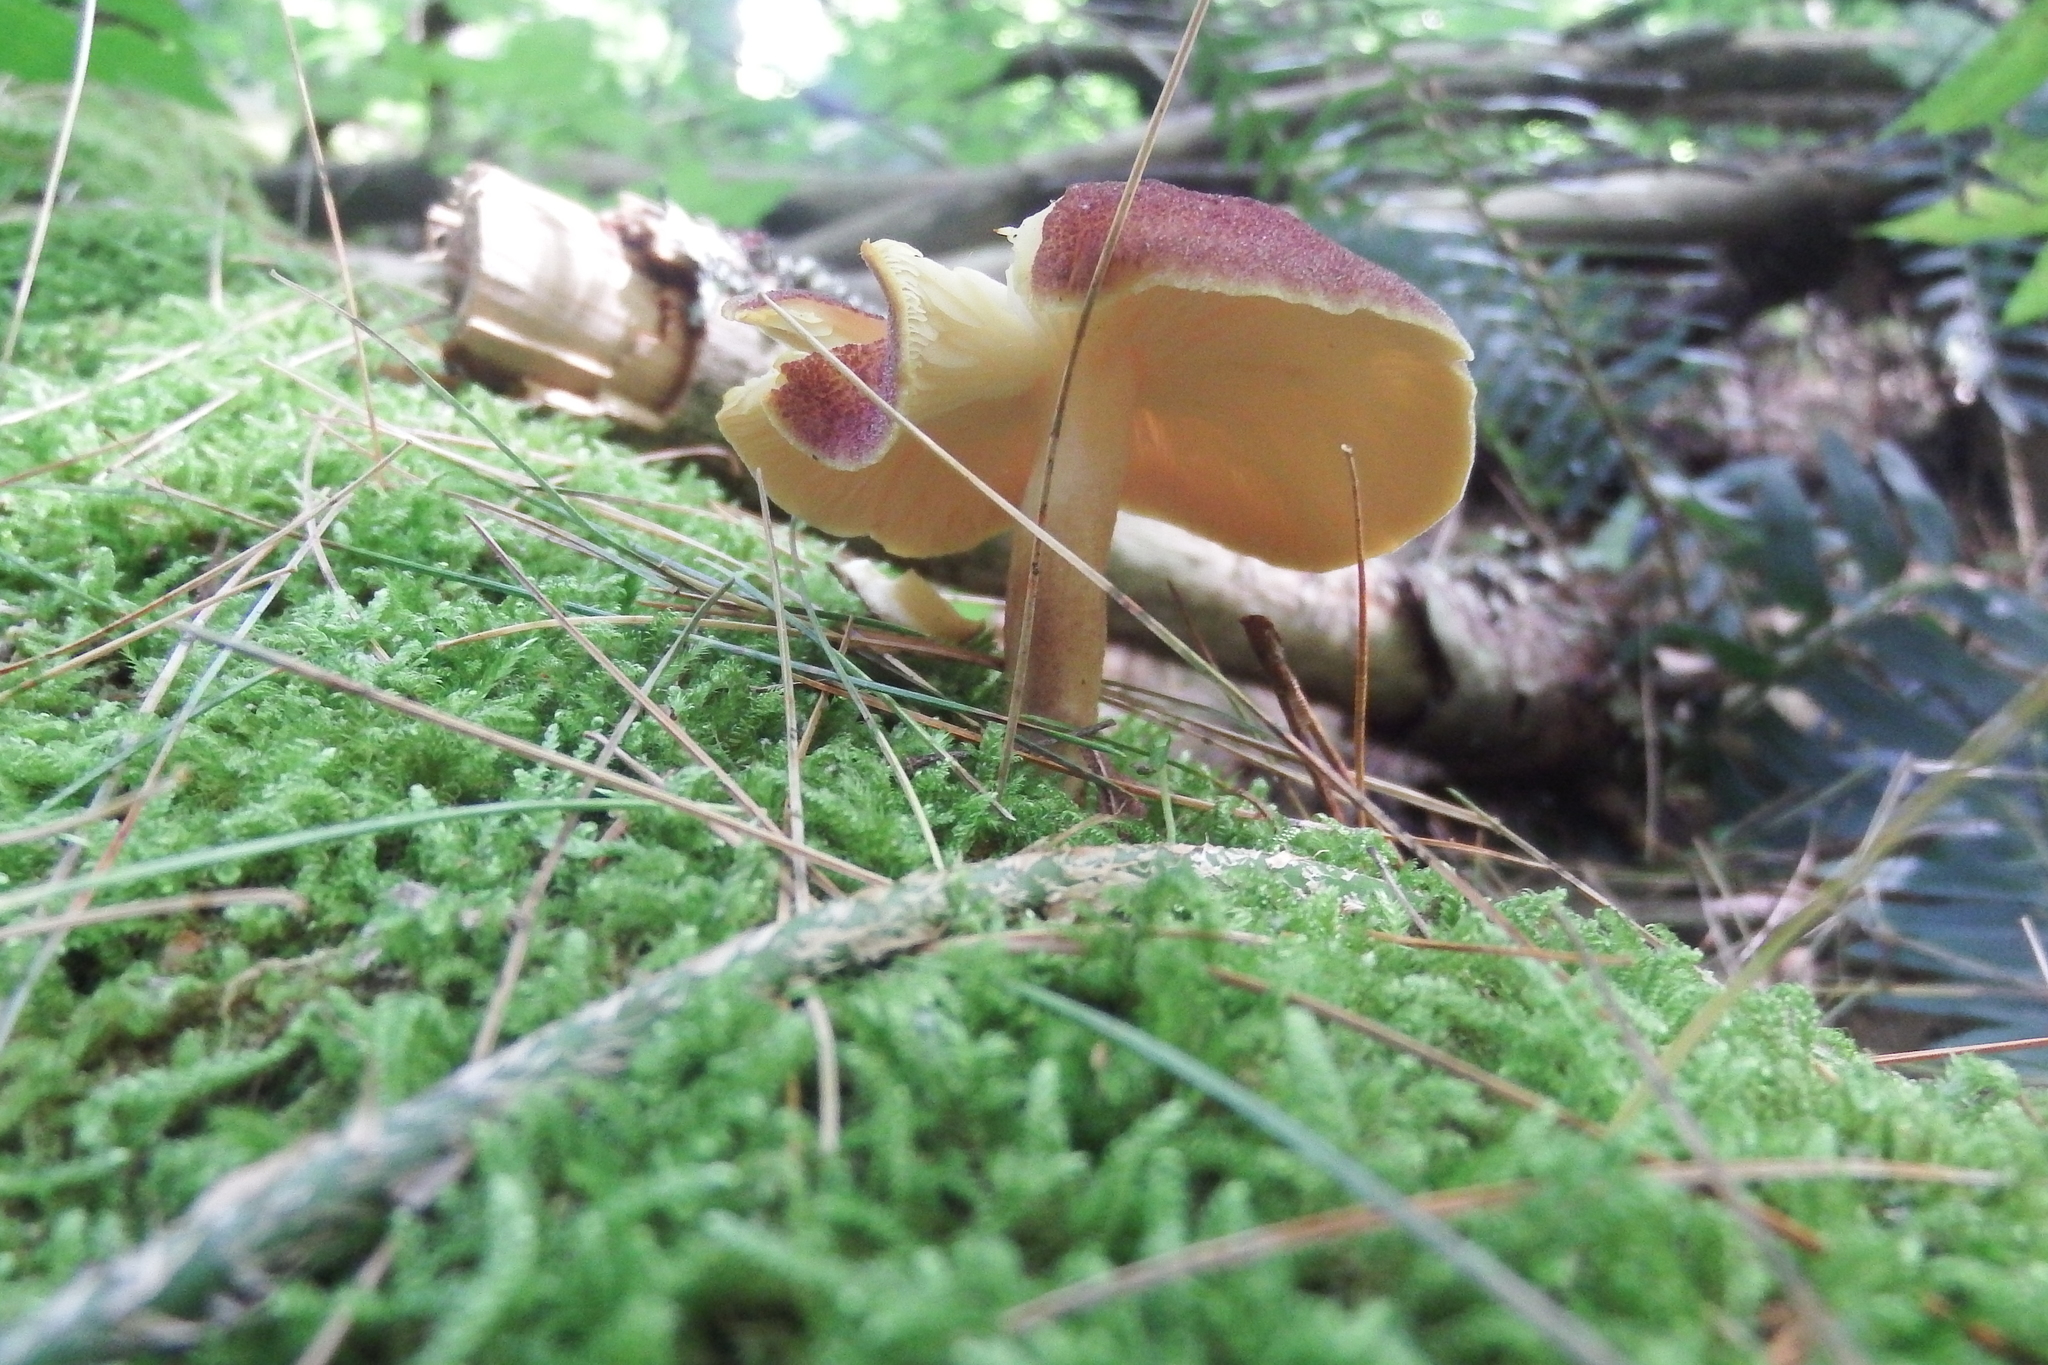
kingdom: Fungi
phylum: Basidiomycota
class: Agaricomycetes
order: Agaricales
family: Tricholomataceae
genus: Tricholomopsis
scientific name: Tricholomopsis rutilans
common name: Plums and custard
